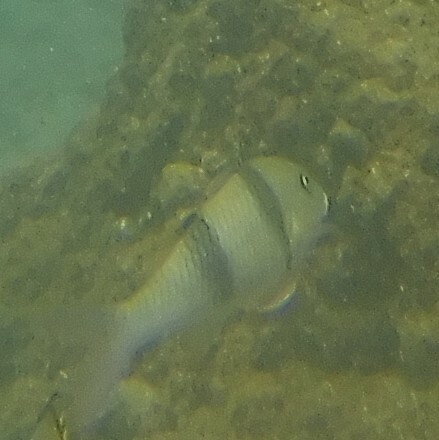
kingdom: Animalia
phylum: Chordata
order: Perciformes
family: Mullidae
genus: Parupeneus
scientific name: Parupeneus trifasciatus
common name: Doublebar goatfish
